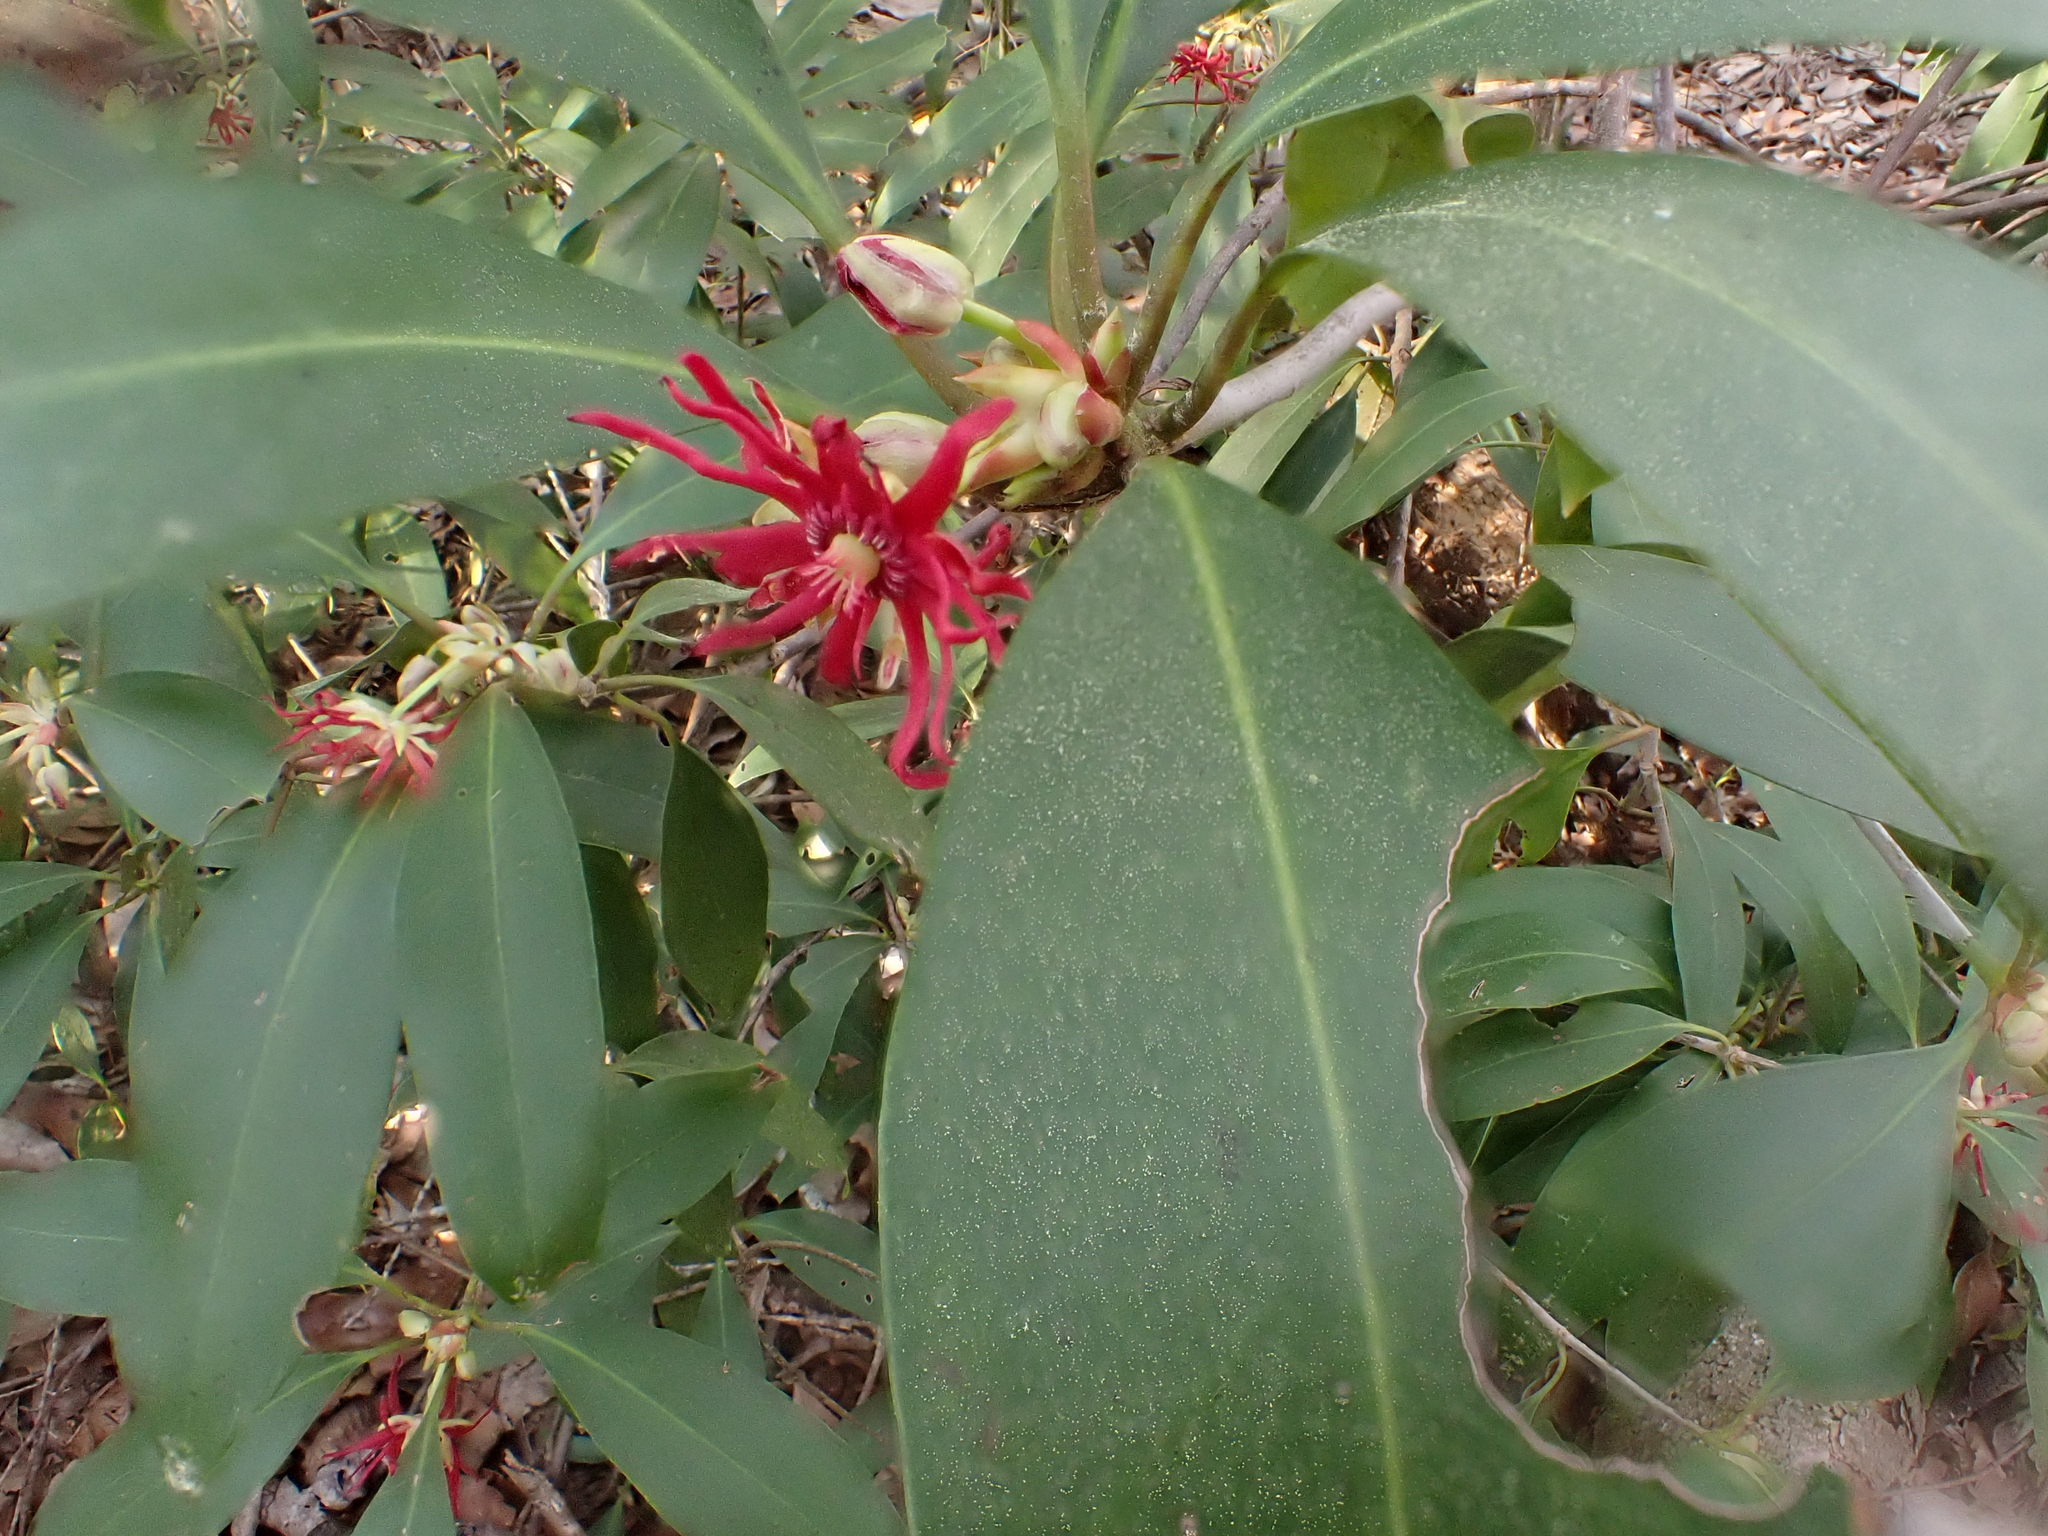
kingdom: Plantae
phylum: Tracheophyta
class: Magnoliopsida
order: Austrobaileyales
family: Schisandraceae
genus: Illicium
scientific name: Illicium floridanum
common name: Florida anisetree
